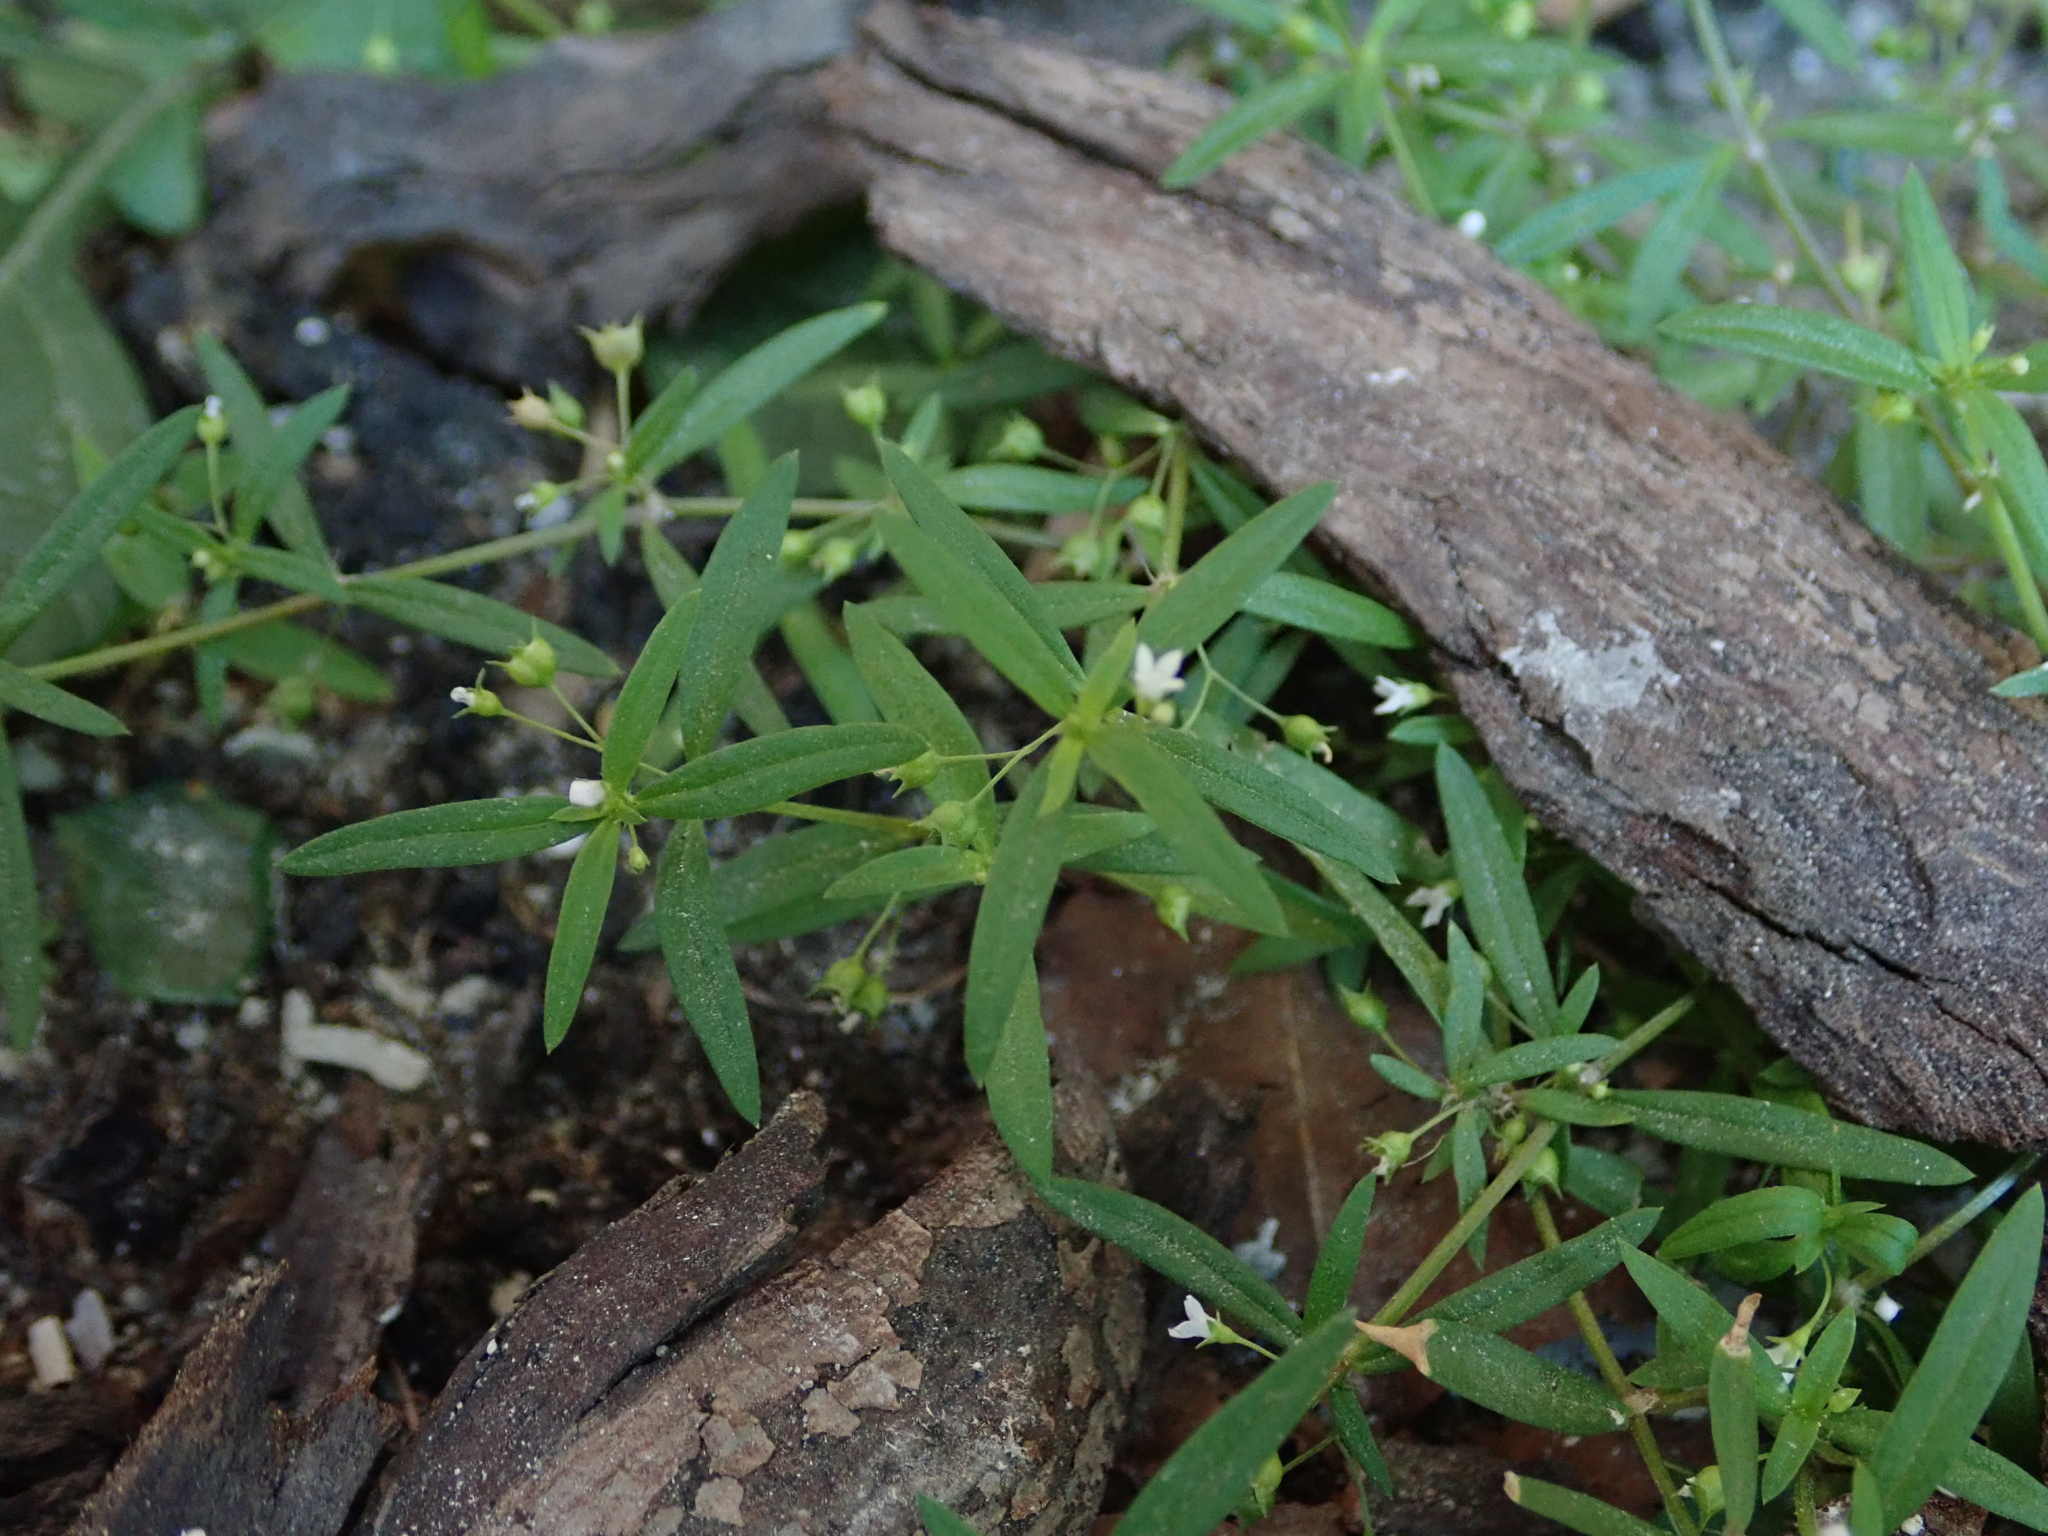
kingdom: Plantae
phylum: Tracheophyta
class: Magnoliopsida
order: Gentianales
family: Rubiaceae
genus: Oldenlandia
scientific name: Oldenlandia corymbosa
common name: Flat-top mille graines
